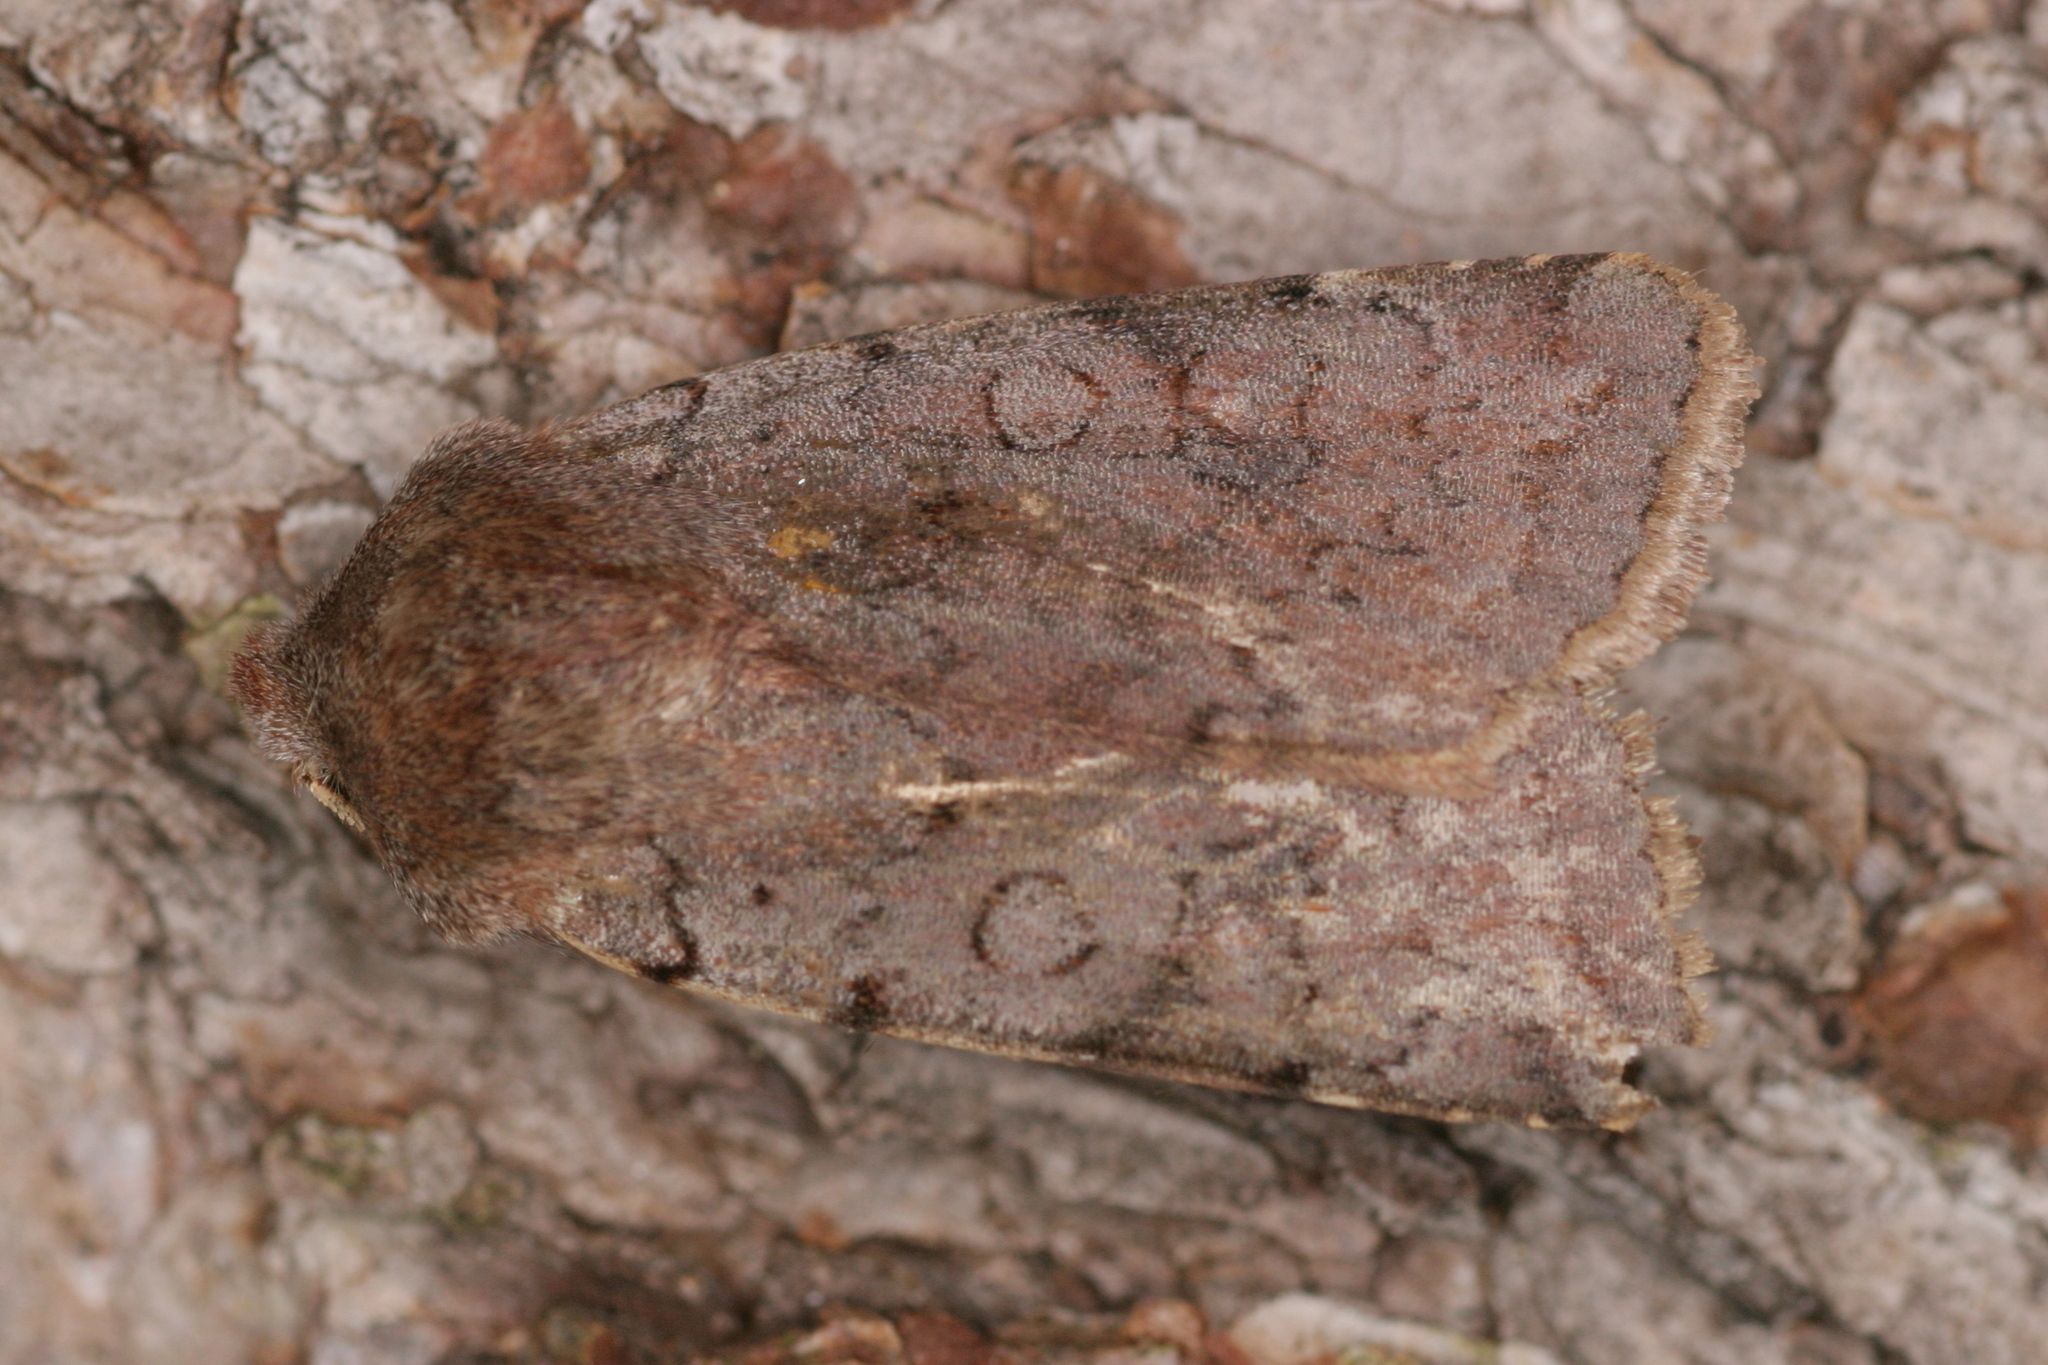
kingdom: Animalia
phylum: Arthropoda
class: Insecta
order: Lepidoptera
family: Noctuidae
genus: Cerastis
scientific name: Cerastis rubricosa
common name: Red chestnut
